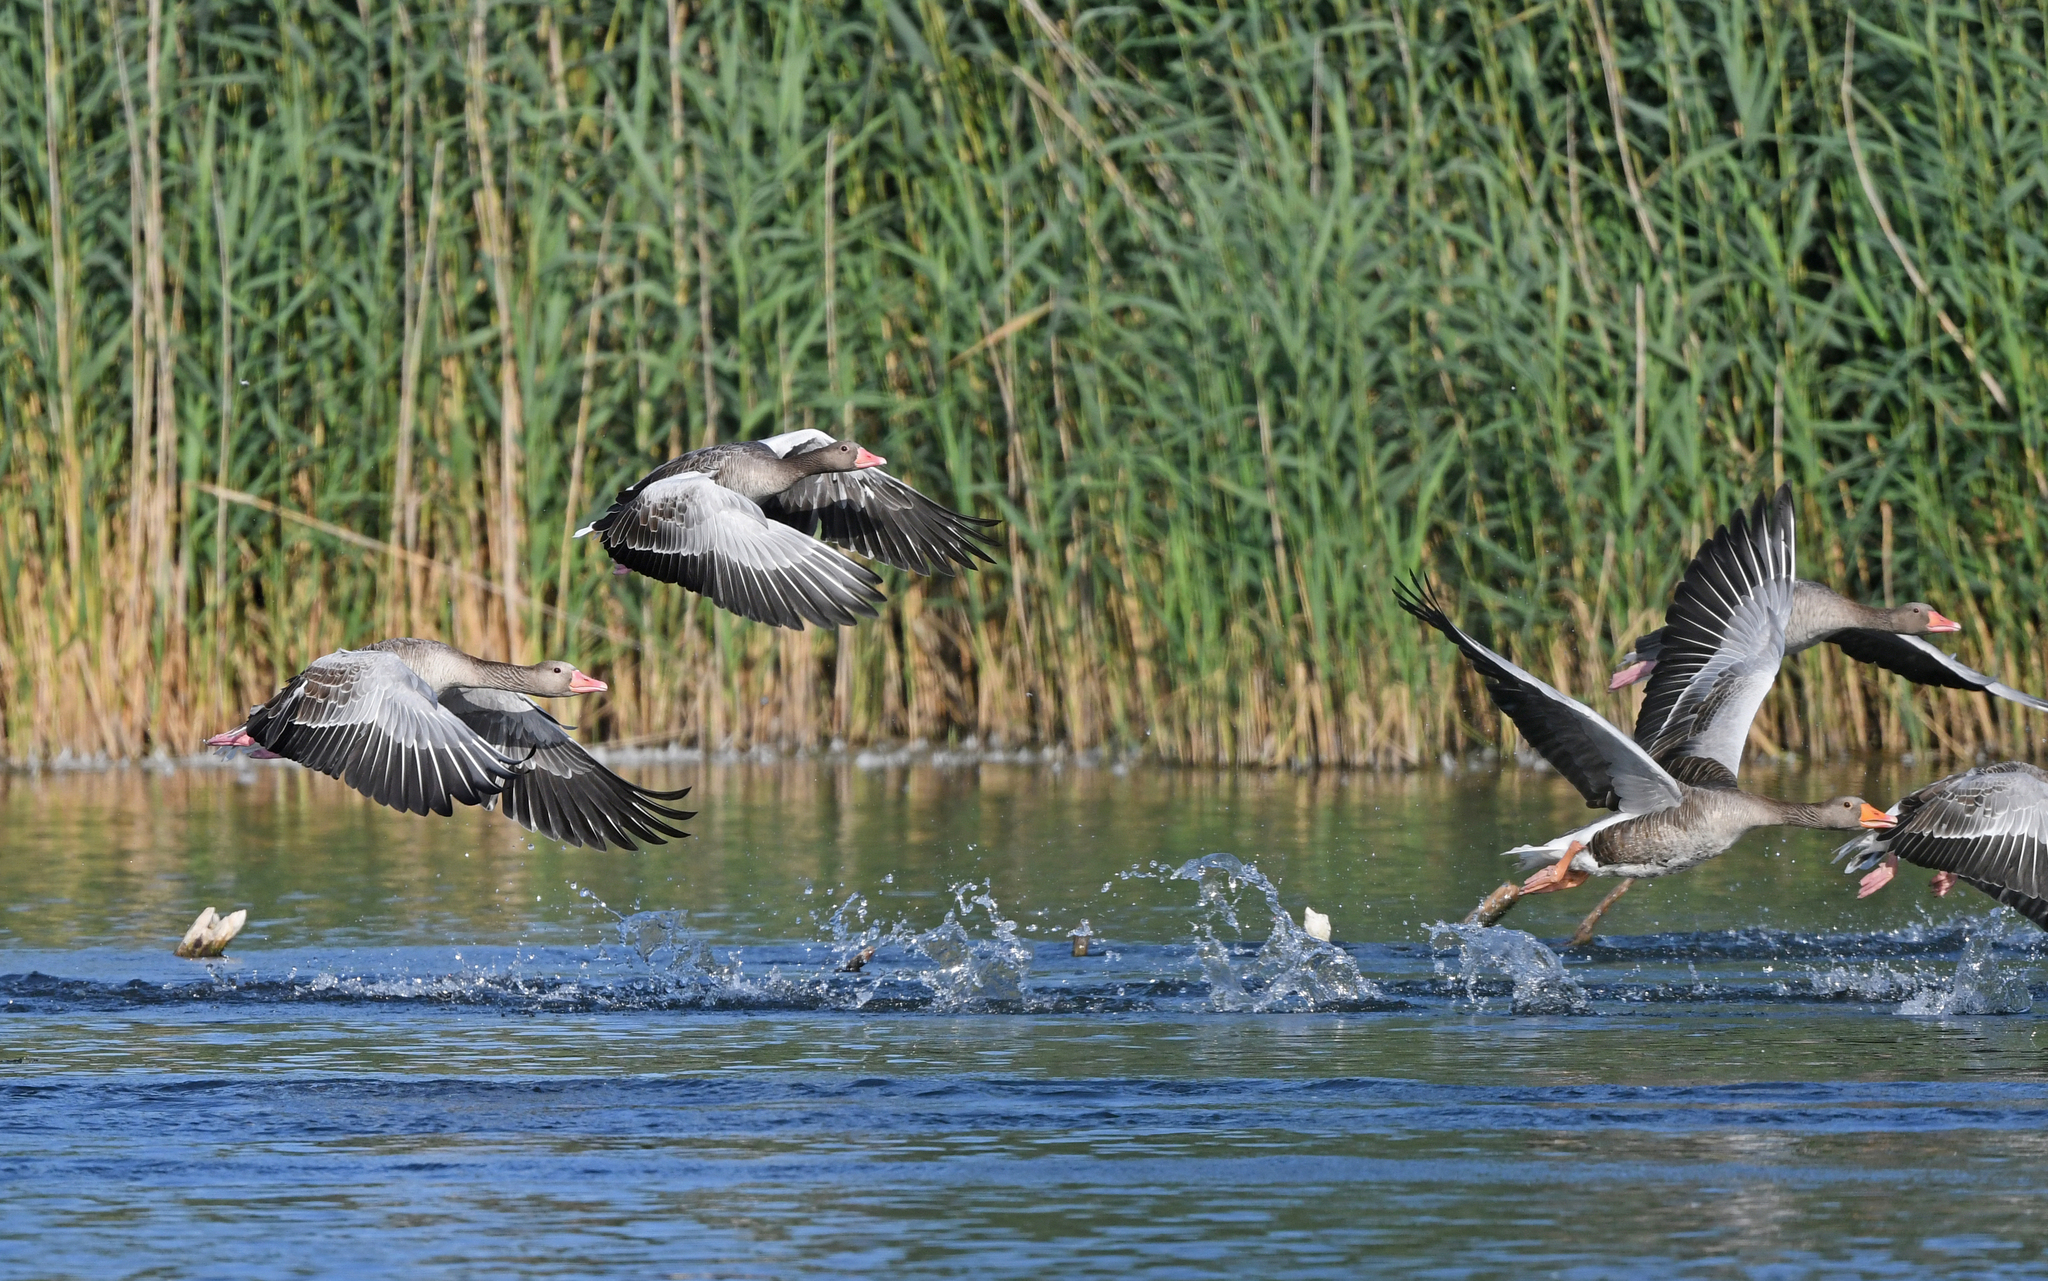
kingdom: Animalia
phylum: Chordata
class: Aves
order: Anseriformes
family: Anatidae
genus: Anser
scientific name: Anser anser
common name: Greylag goose
